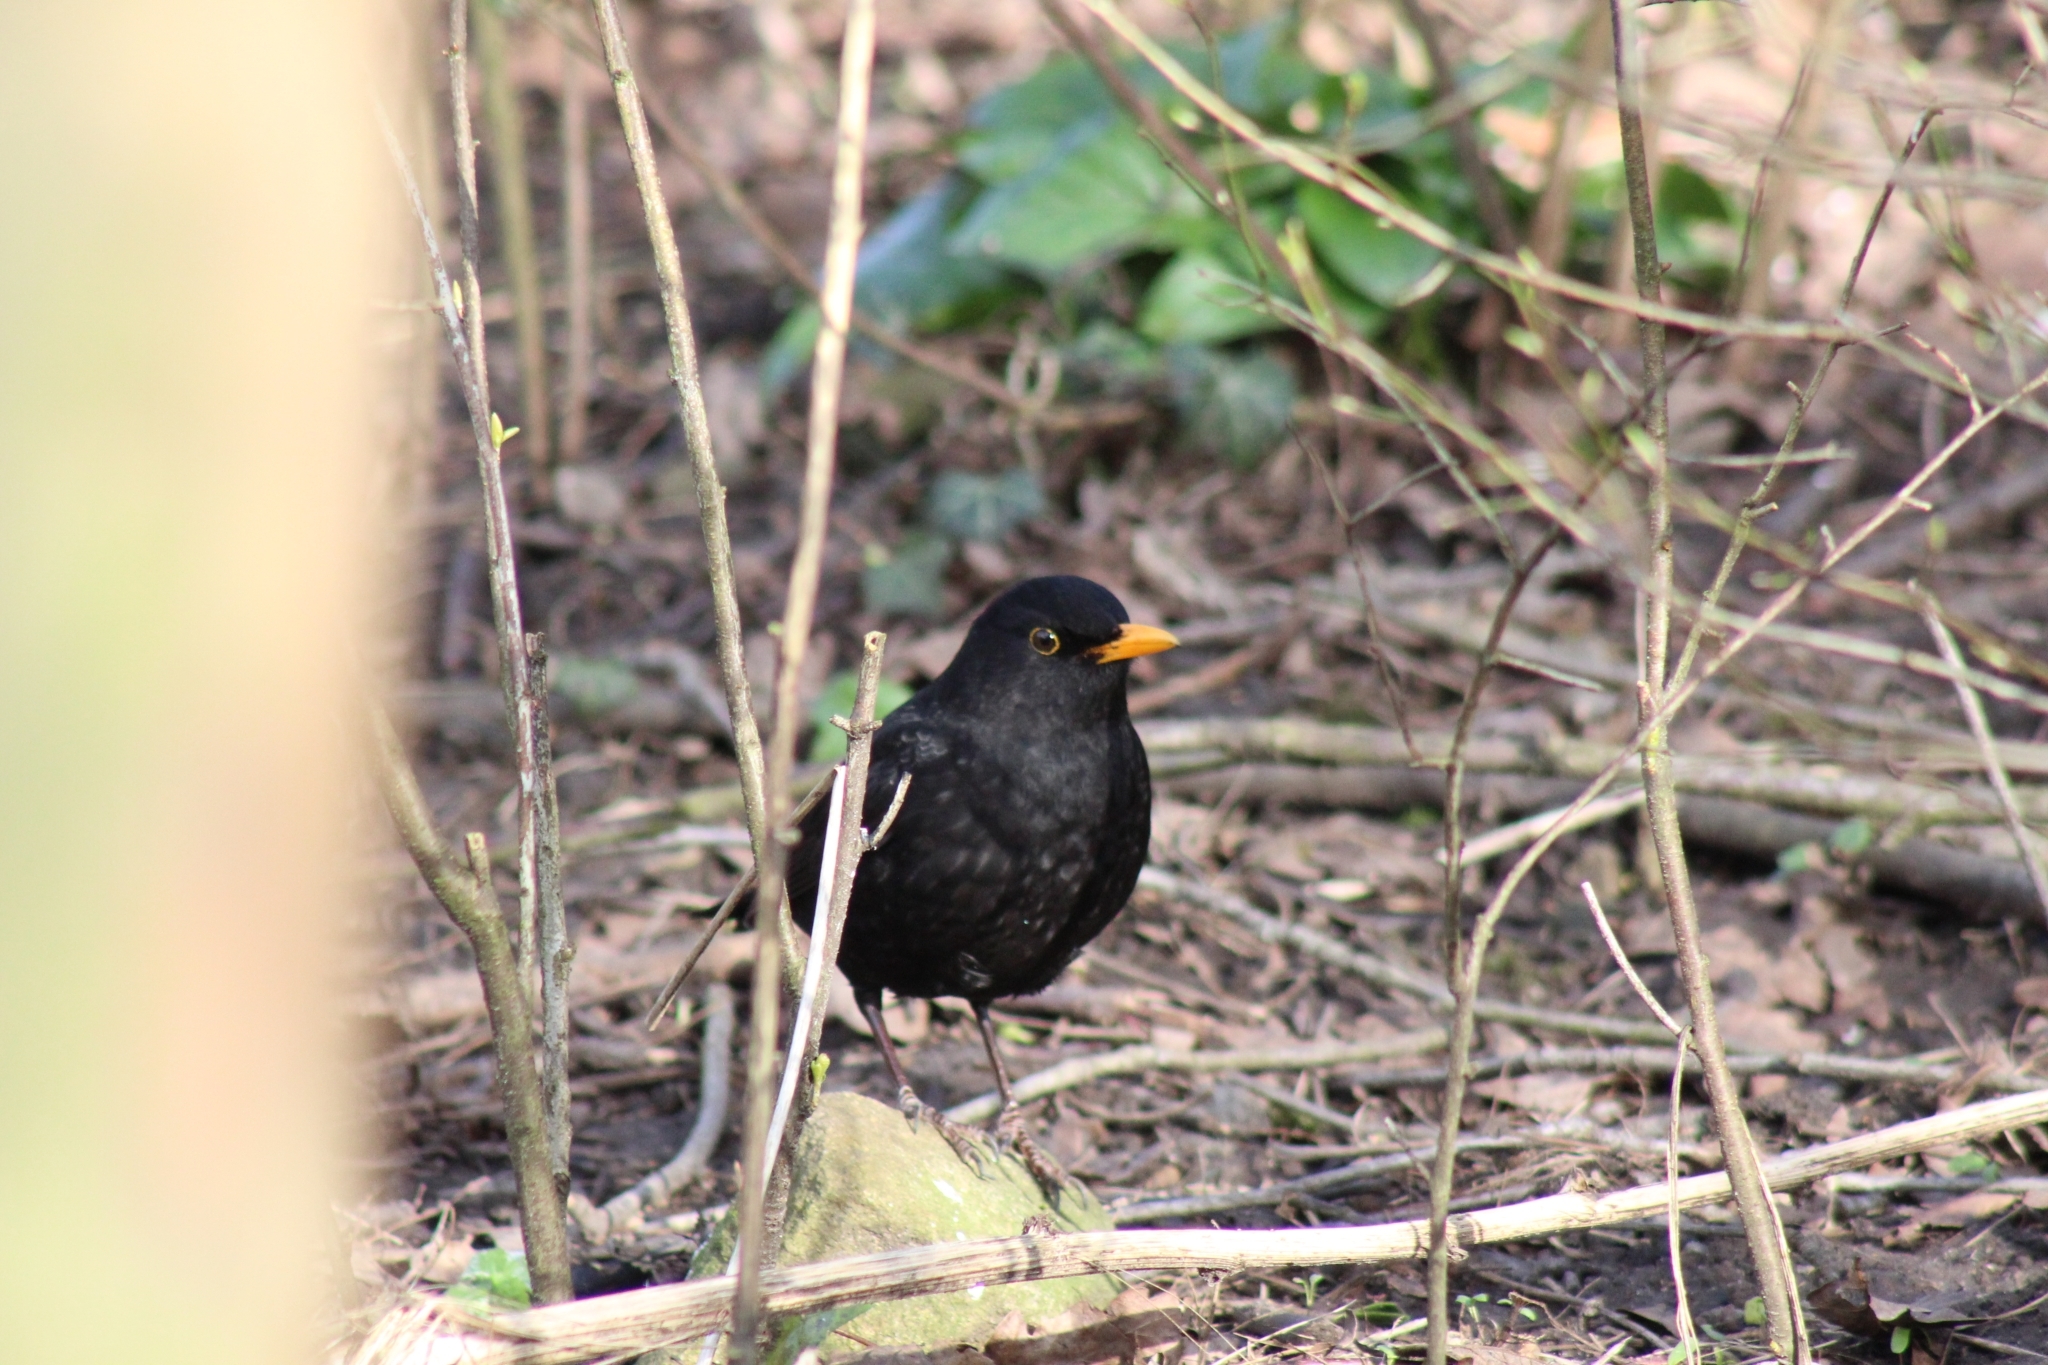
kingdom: Animalia
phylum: Chordata
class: Aves
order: Passeriformes
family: Turdidae
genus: Turdus
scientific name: Turdus merula
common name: Common blackbird
